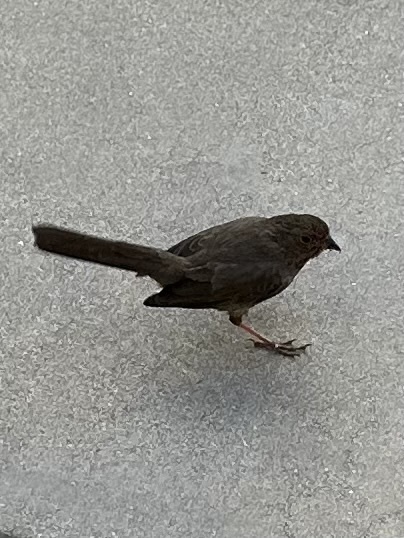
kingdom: Animalia
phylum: Chordata
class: Aves
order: Passeriformes
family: Passerellidae
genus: Melozone
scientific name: Melozone crissalis
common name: California towhee
